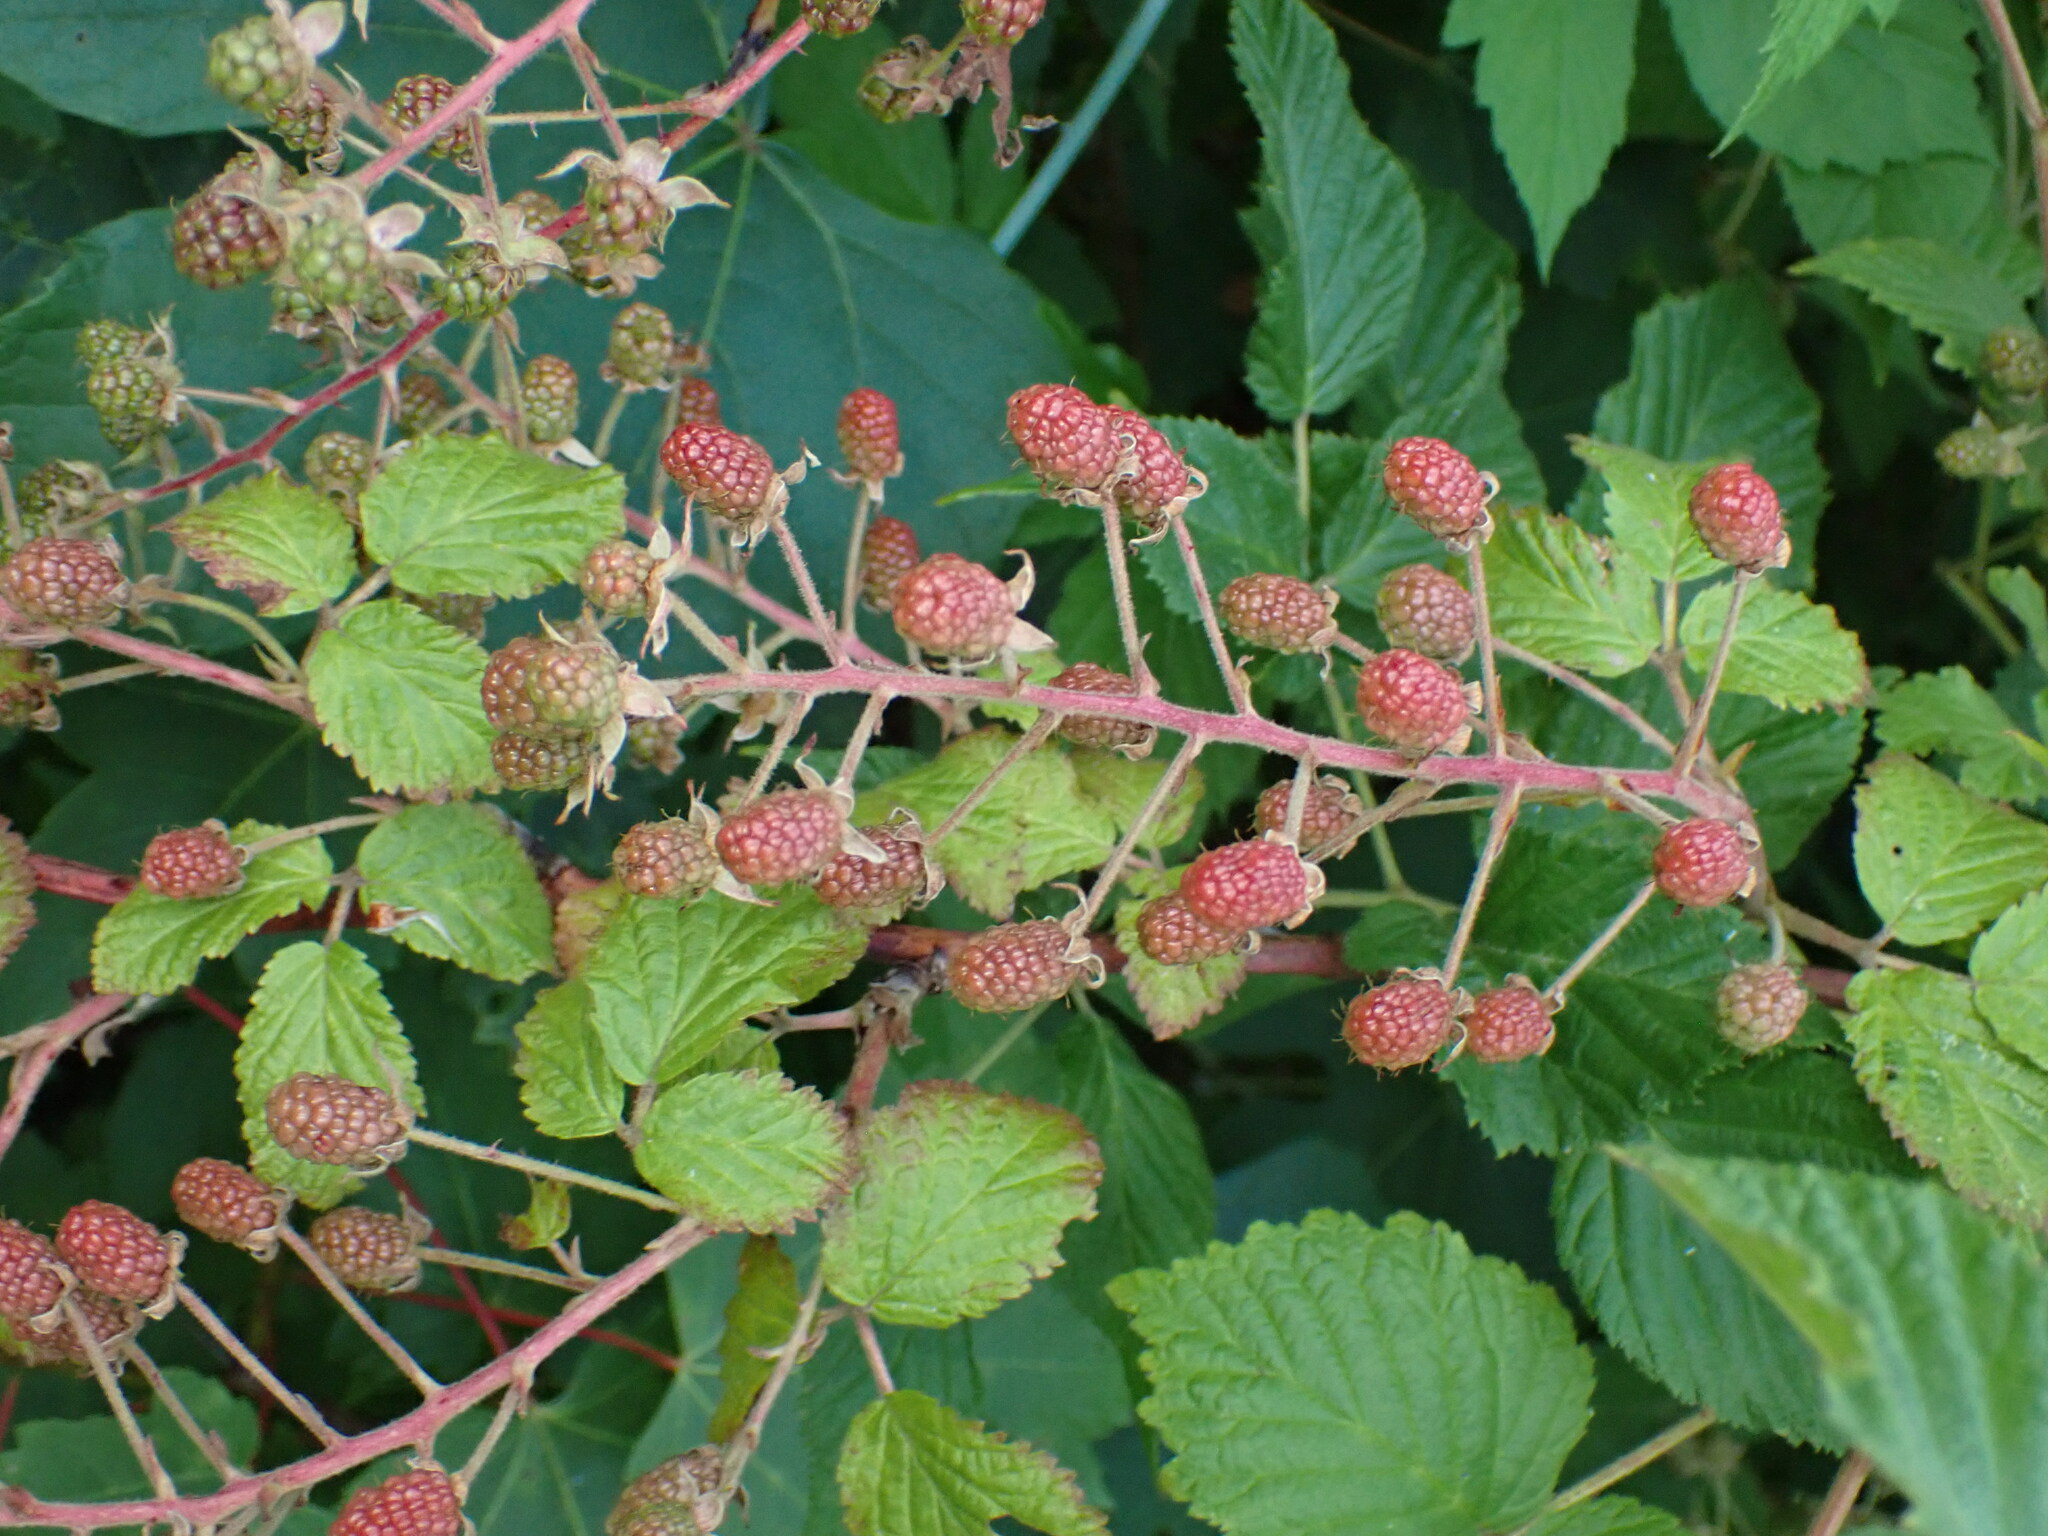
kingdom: Plantae
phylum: Tracheophyta
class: Magnoliopsida
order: Rosales
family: Rosaceae
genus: Rubus
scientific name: Rubus allegheniensis
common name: Allegheny blackberry
